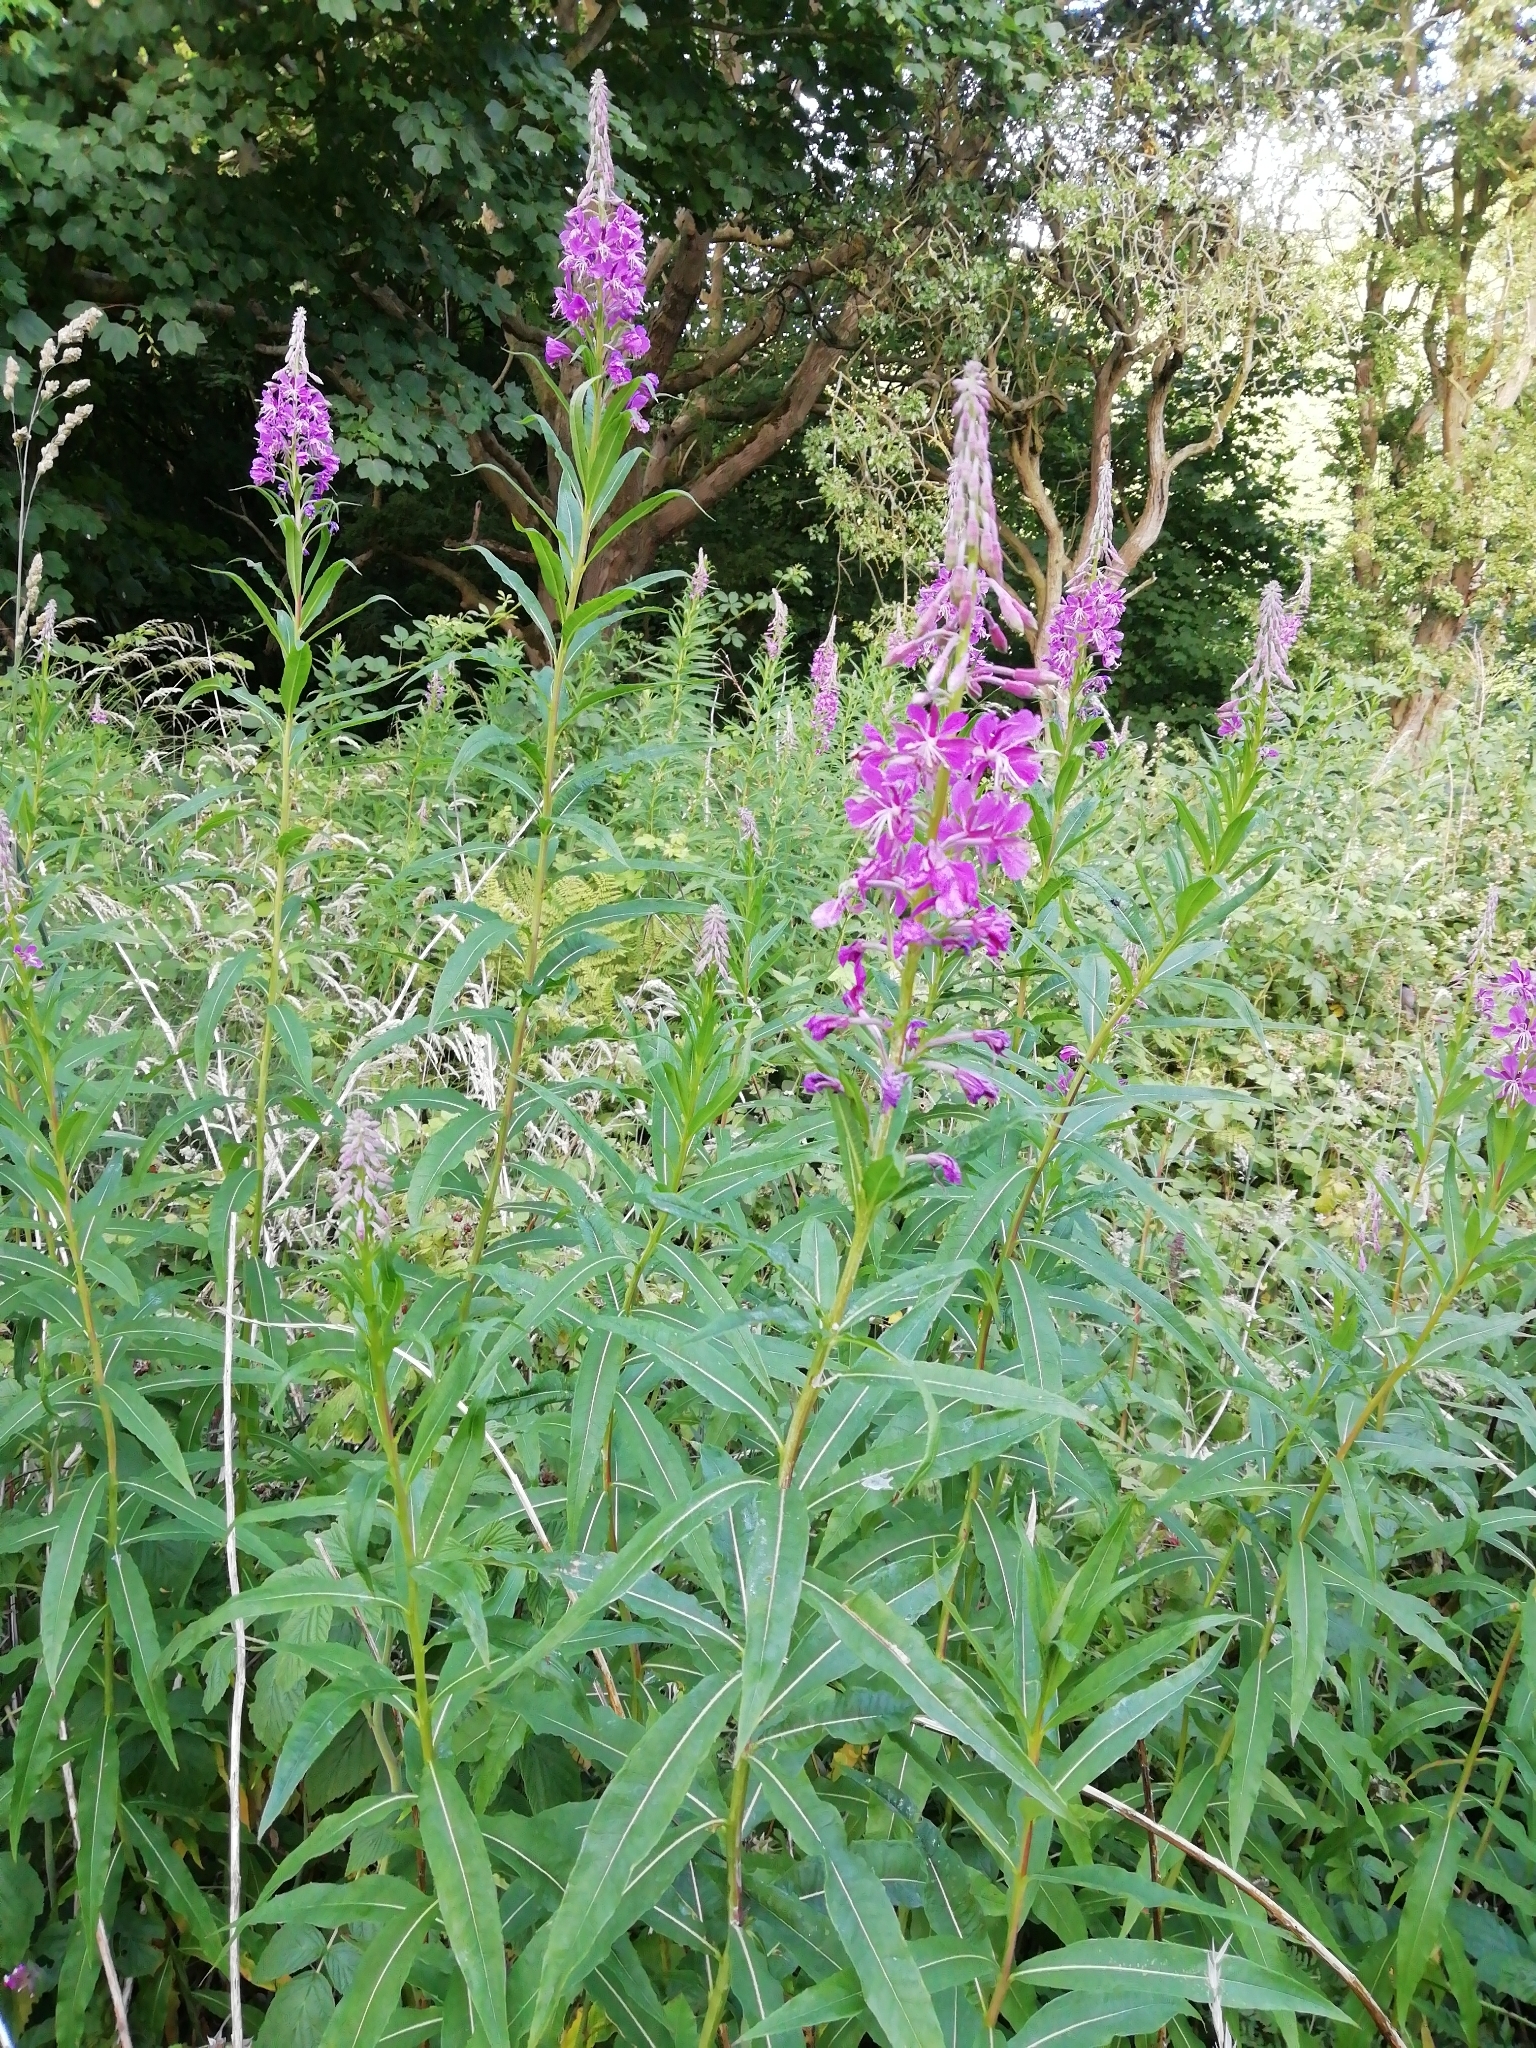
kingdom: Plantae
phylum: Tracheophyta
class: Magnoliopsida
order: Myrtales
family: Onagraceae
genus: Chamaenerion
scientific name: Chamaenerion angustifolium
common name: Fireweed
